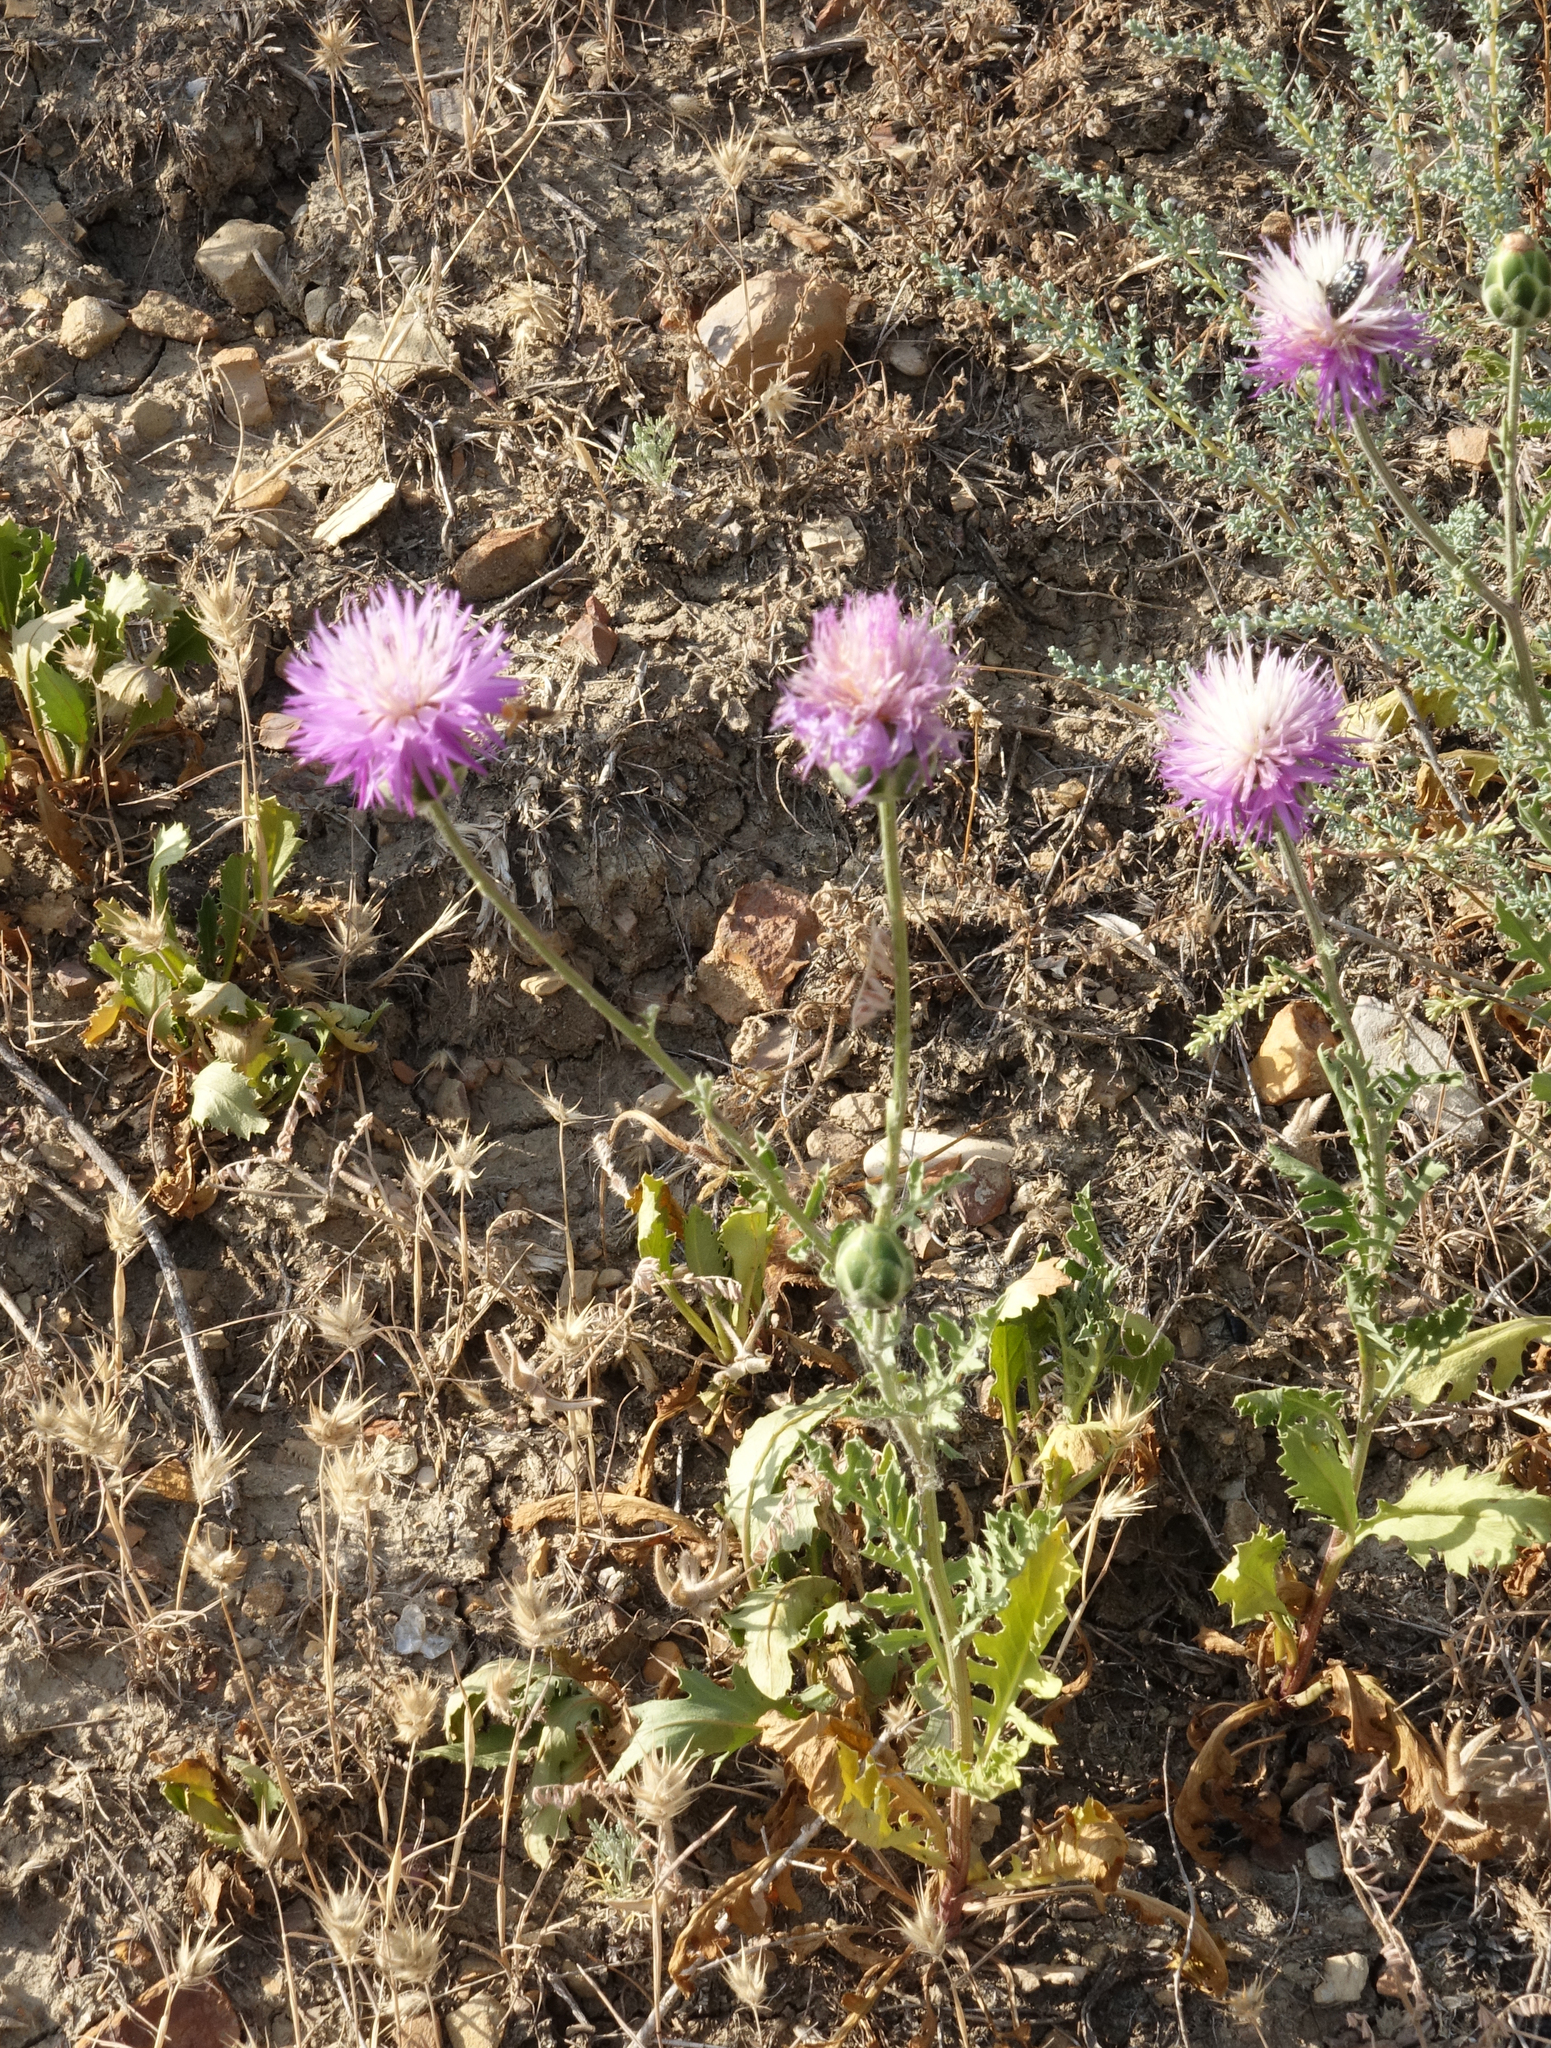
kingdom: Plantae
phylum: Tracheophyta
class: Magnoliopsida
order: Asterales
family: Asteraceae
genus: Amberboa
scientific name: Amberboa glauca
